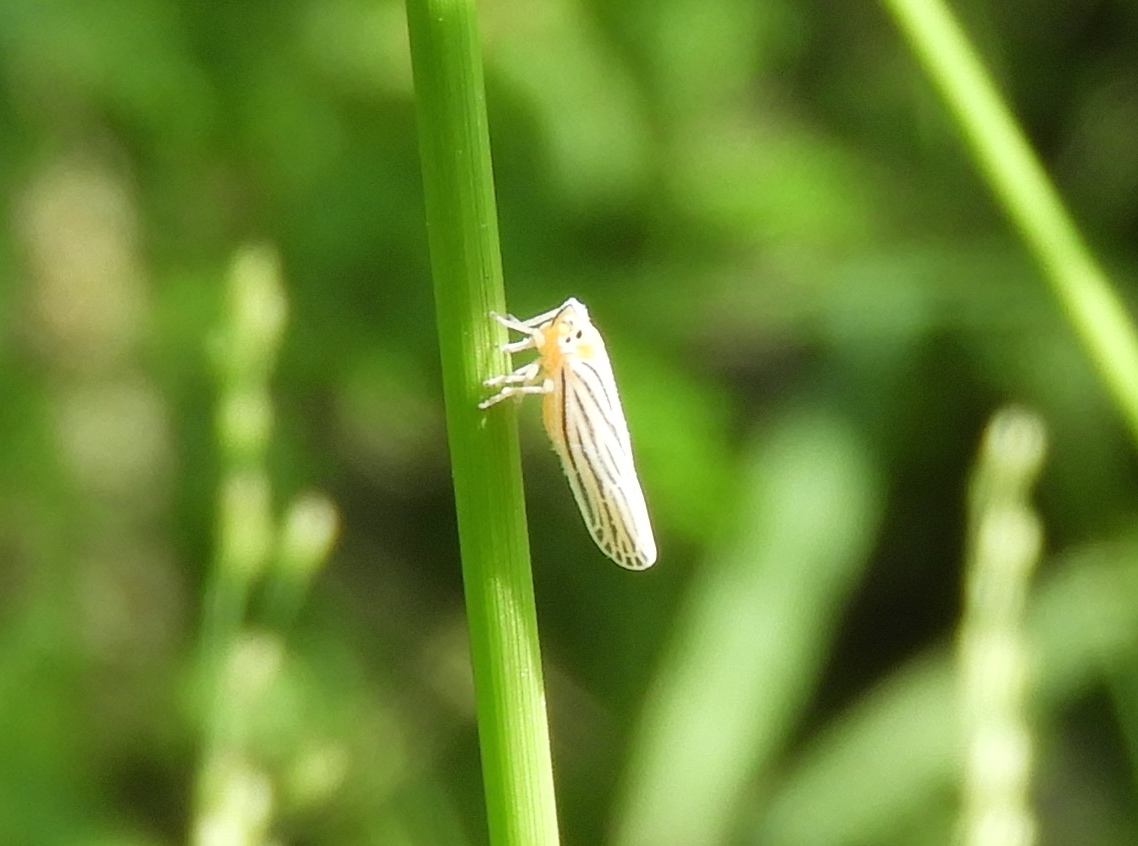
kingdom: Animalia
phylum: Arthropoda
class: Insecta
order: Hemiptera
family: Derbidae
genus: Persis
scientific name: Persis
